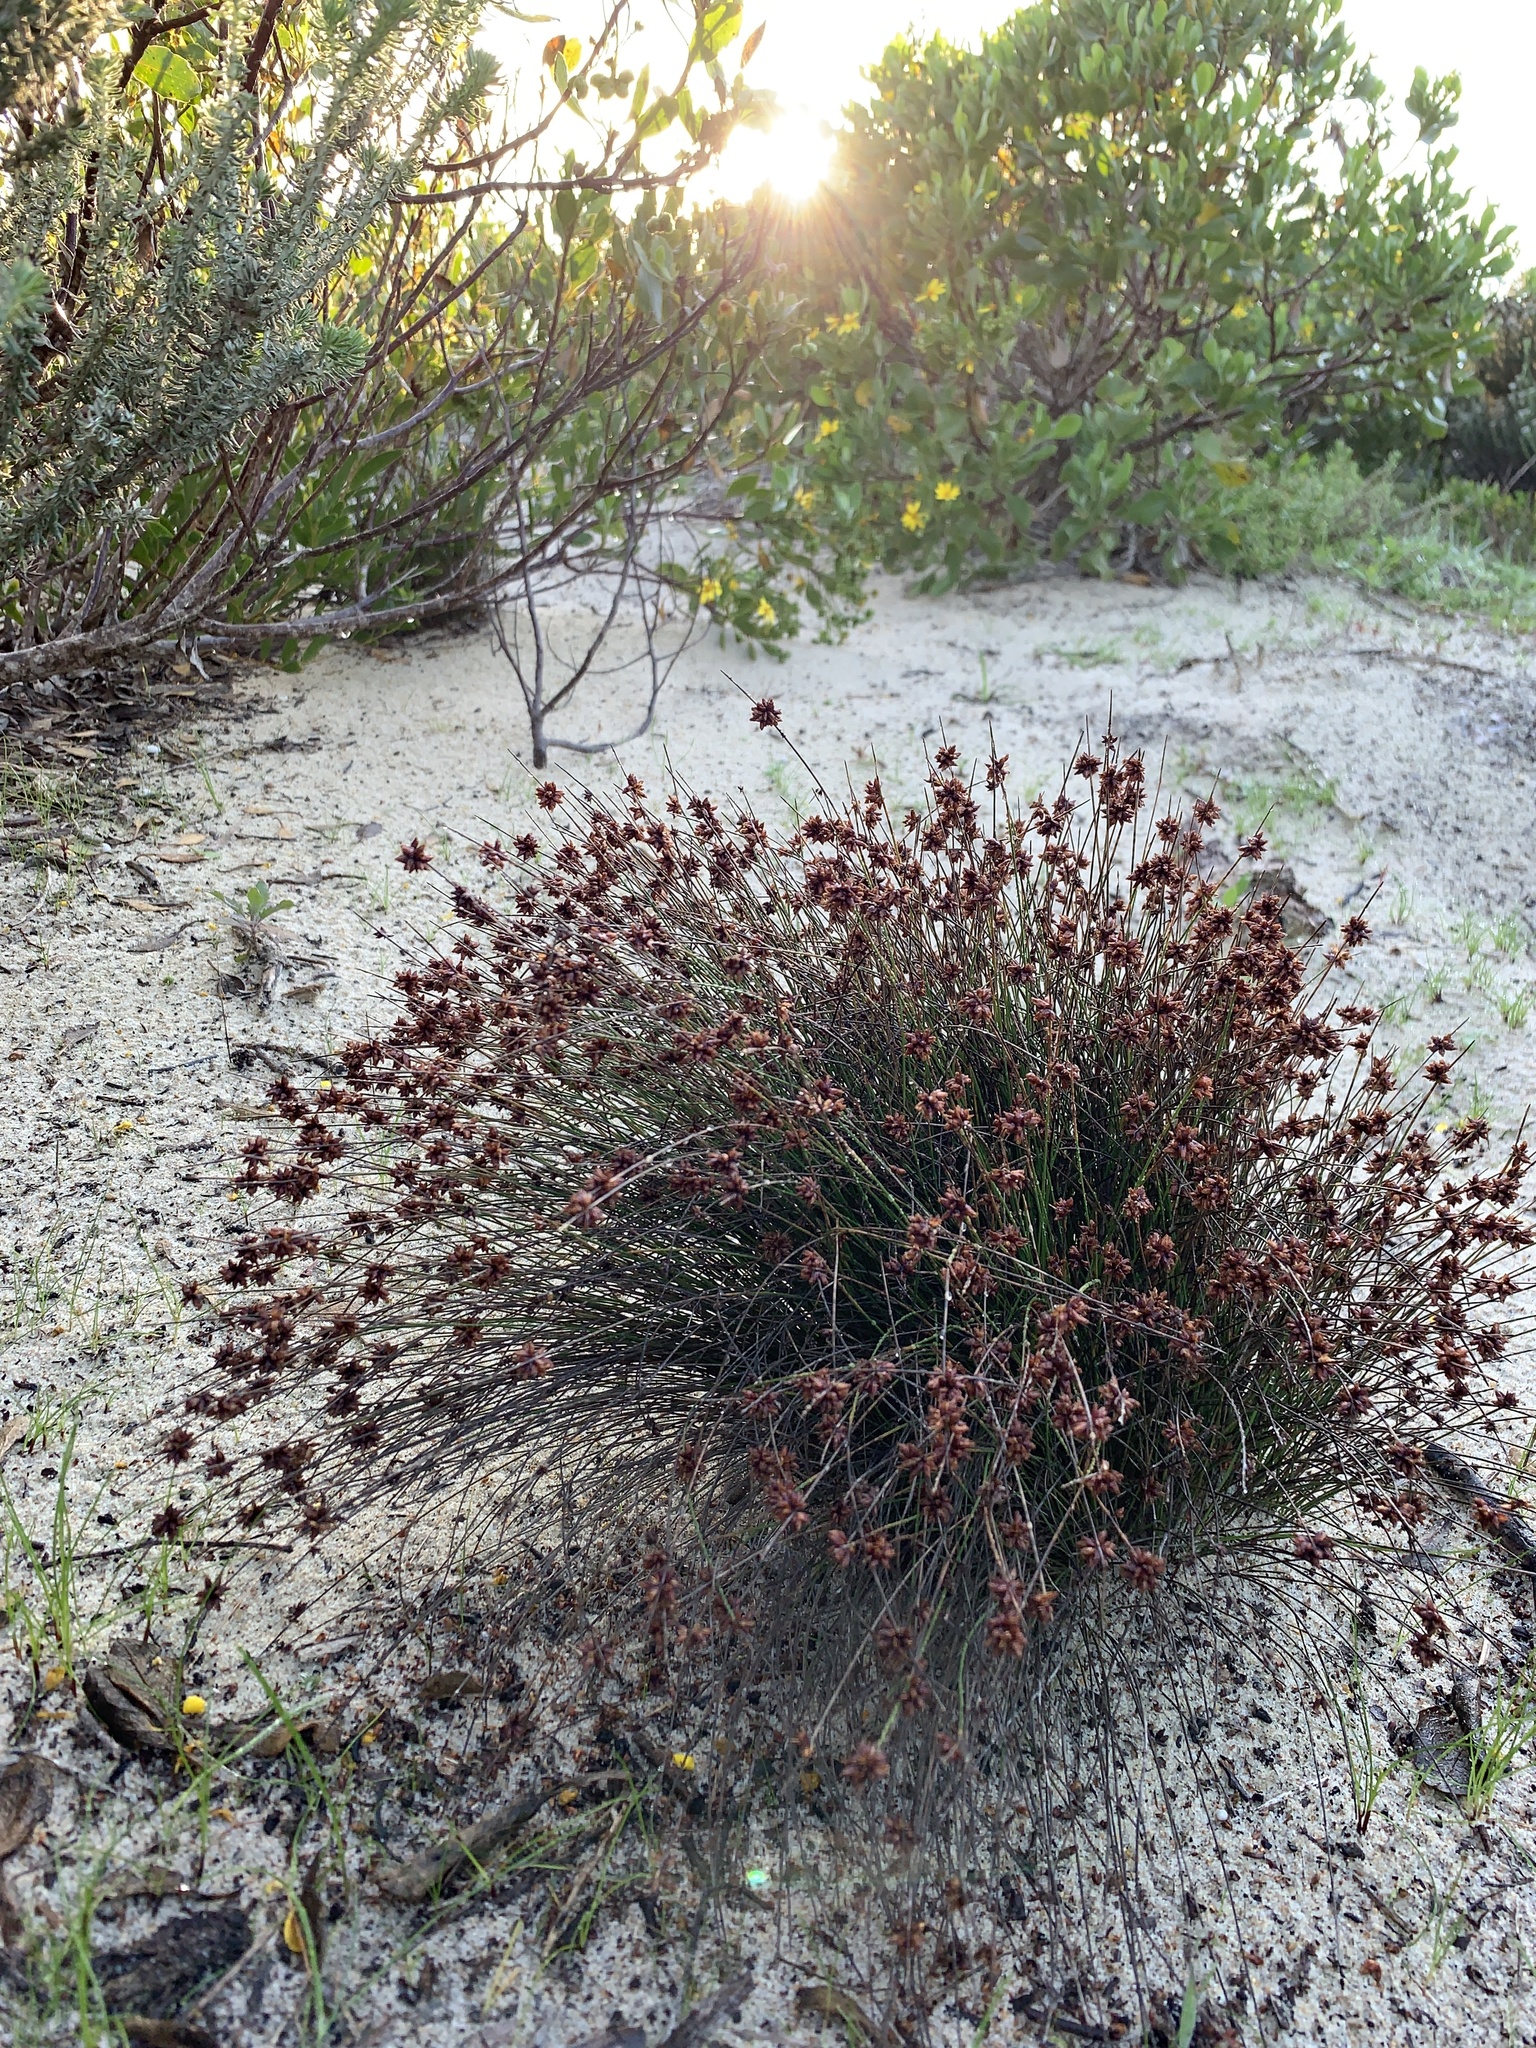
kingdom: Plantae
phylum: Tracheophyta
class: Liliopsida
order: Poales
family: Cyperaceae
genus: Ficinia
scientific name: Ficinia lateralis
